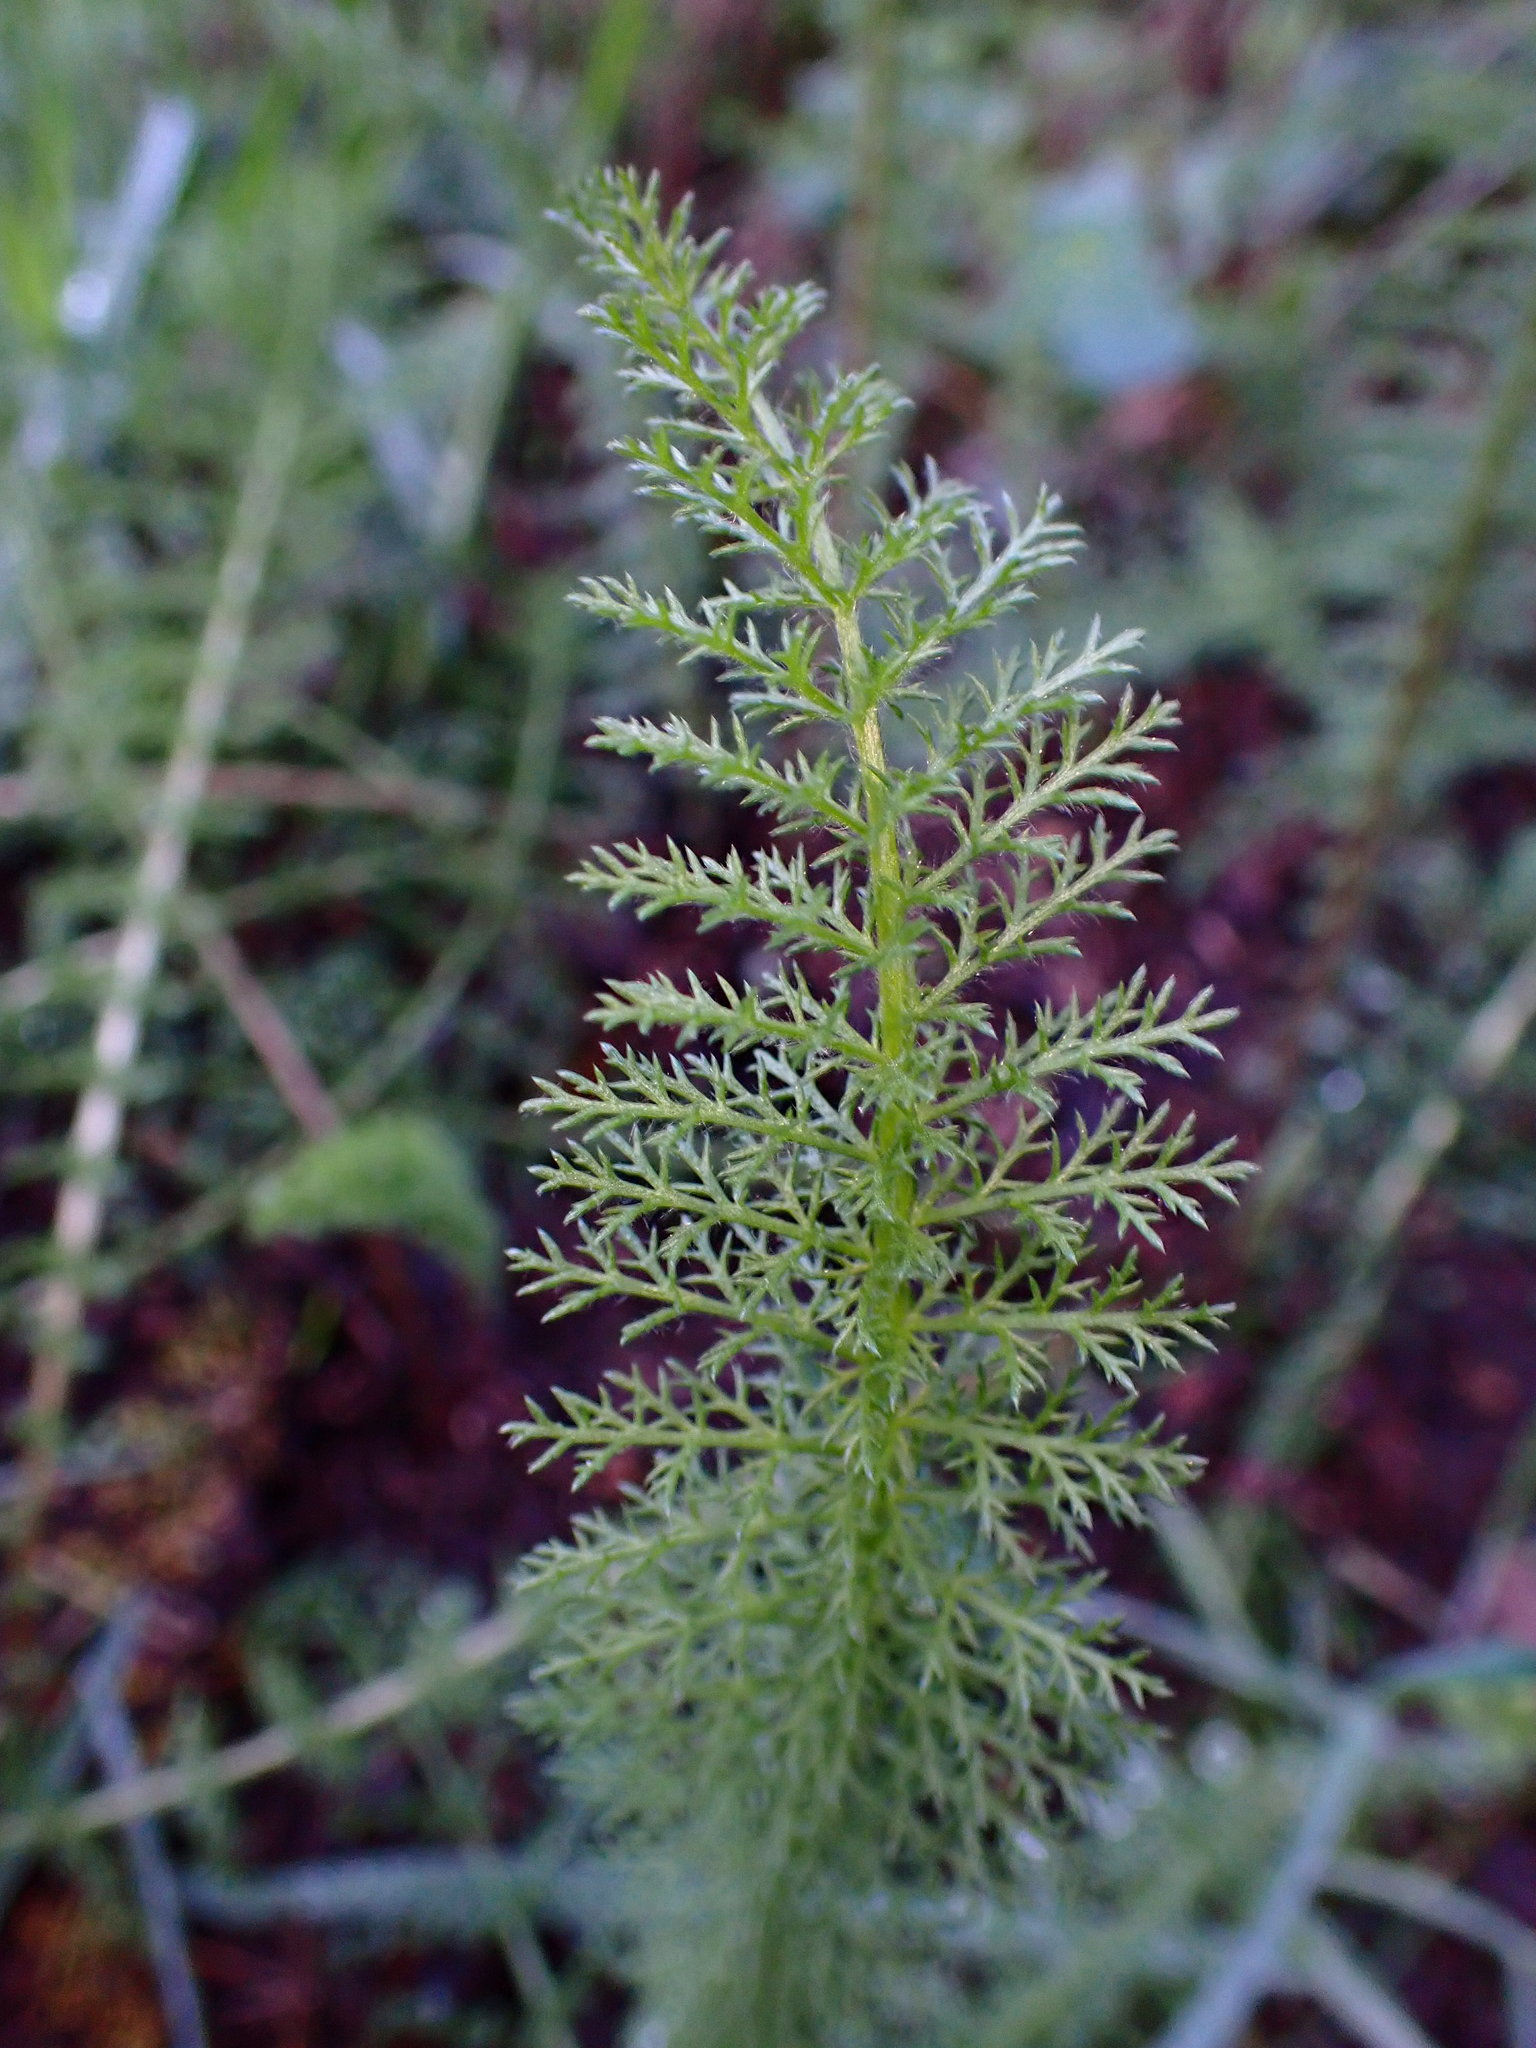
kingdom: Plantae
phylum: Tracheophyta
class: Magnoliopsida
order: Asterales
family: Asteraceae
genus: Achillea
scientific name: Achillea millefolium
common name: Yarrow
